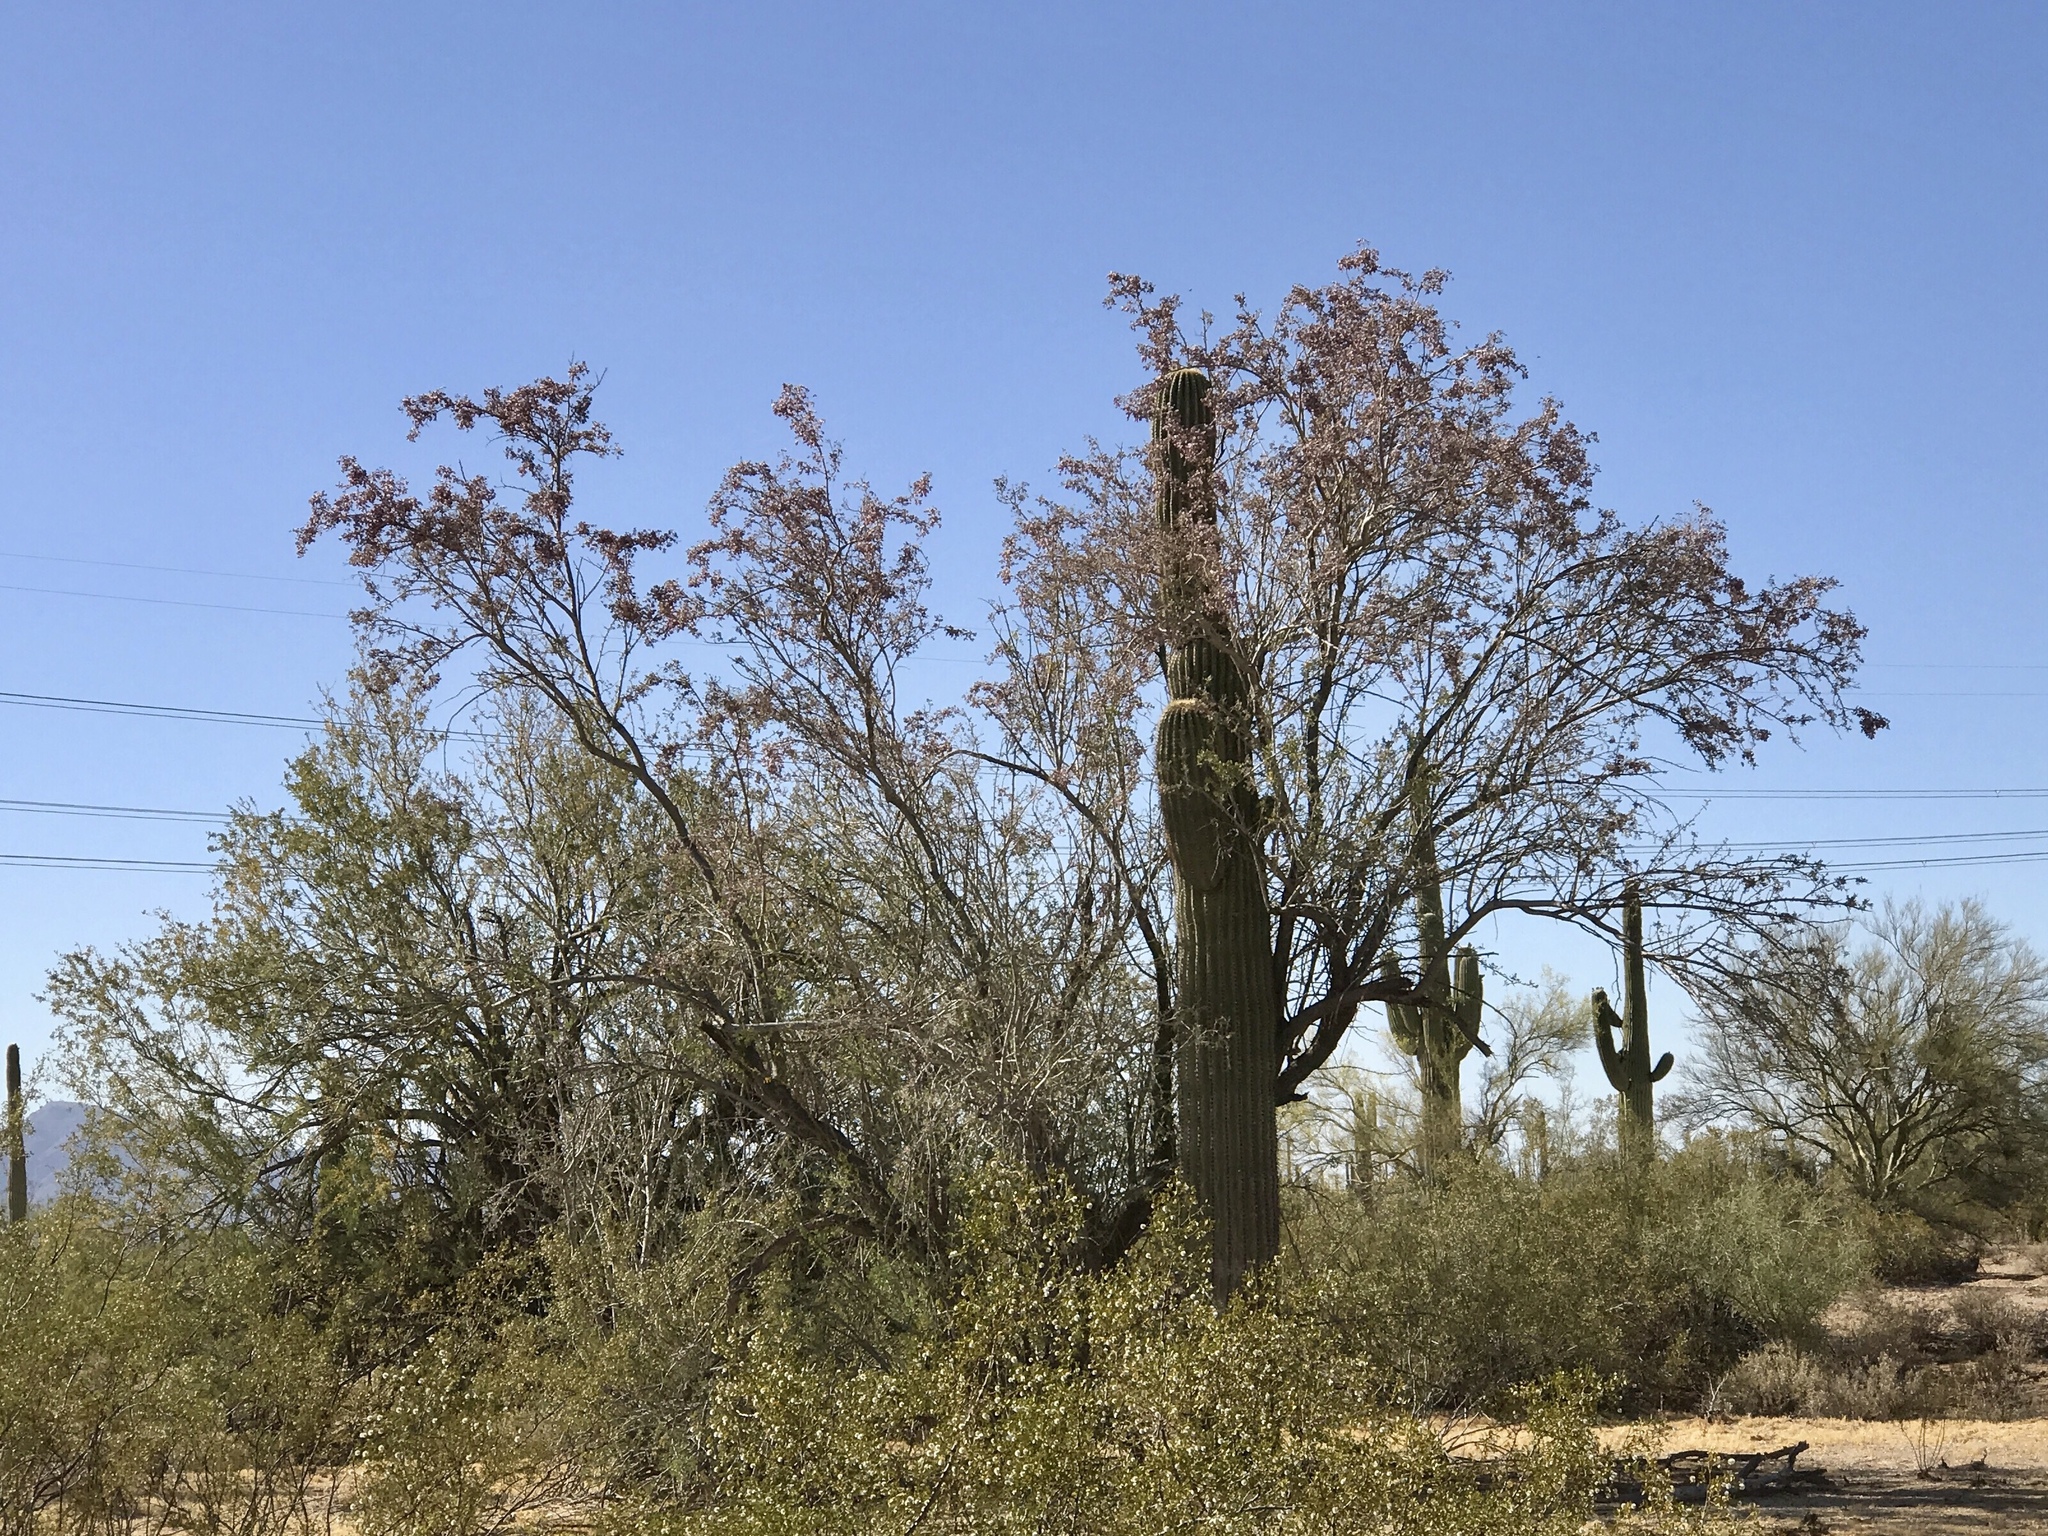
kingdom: Plantae
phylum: Tracheophyta
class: Magnoliopsida
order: Caryophyllales
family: Cactaceae
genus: Carnegiea
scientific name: Carnegiea gigantea
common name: Saguaro
